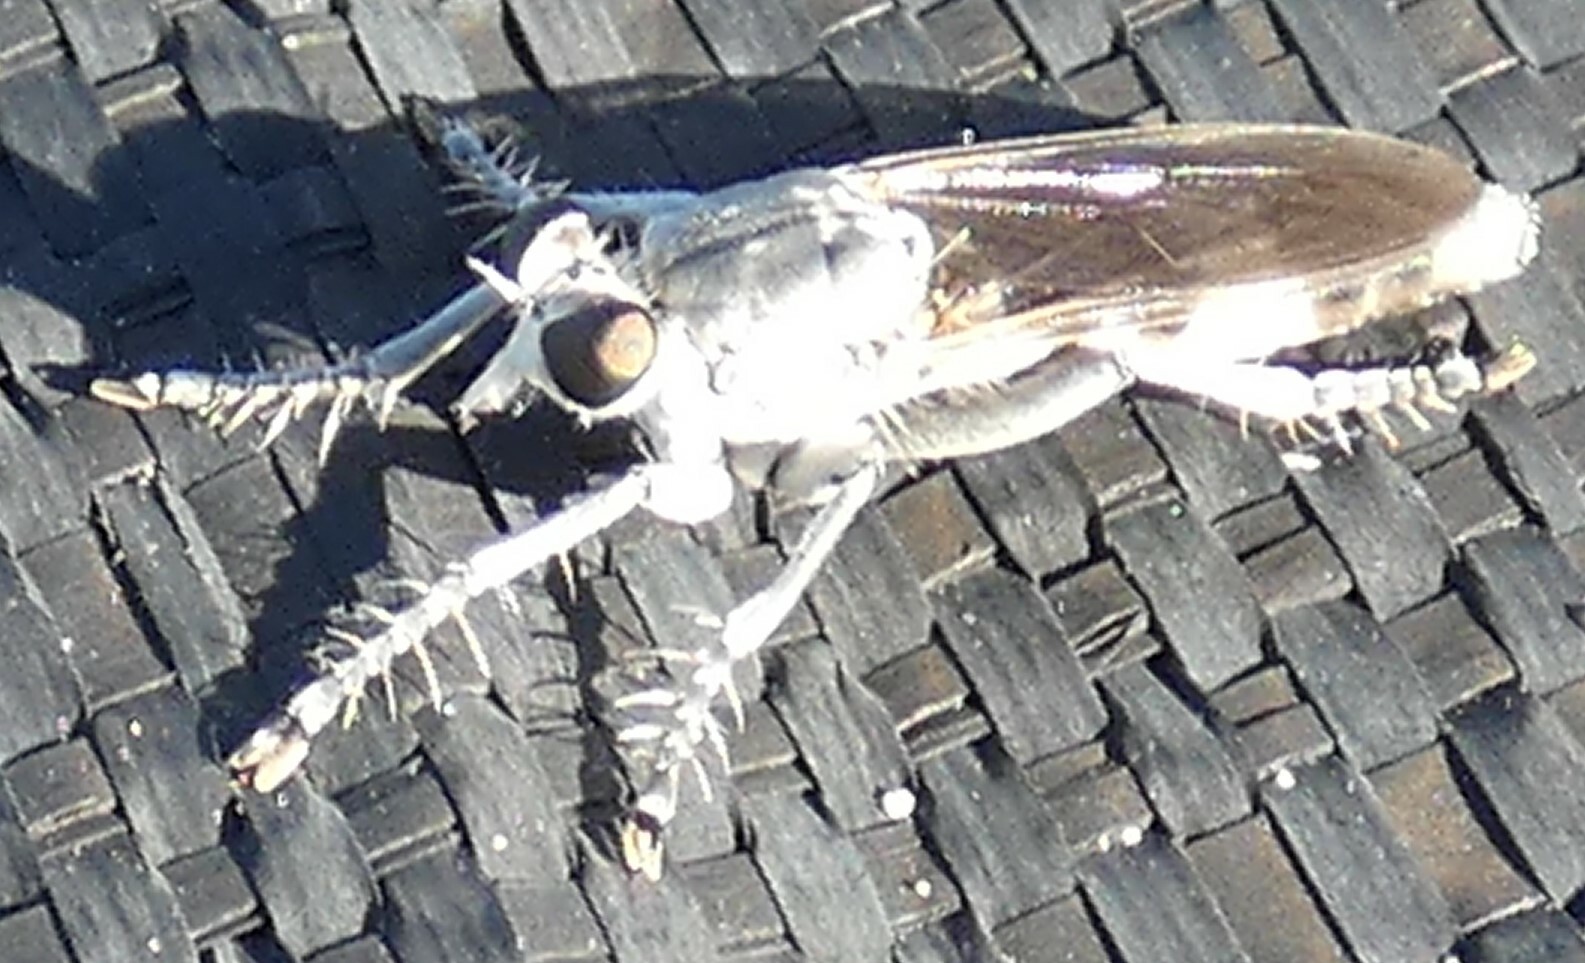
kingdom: Animalia
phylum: Arthropoda
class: Insecta
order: Diptera
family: Asilidae
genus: Stichopogon
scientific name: Stichopogon trifasciatus
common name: Three-banded robber fly
